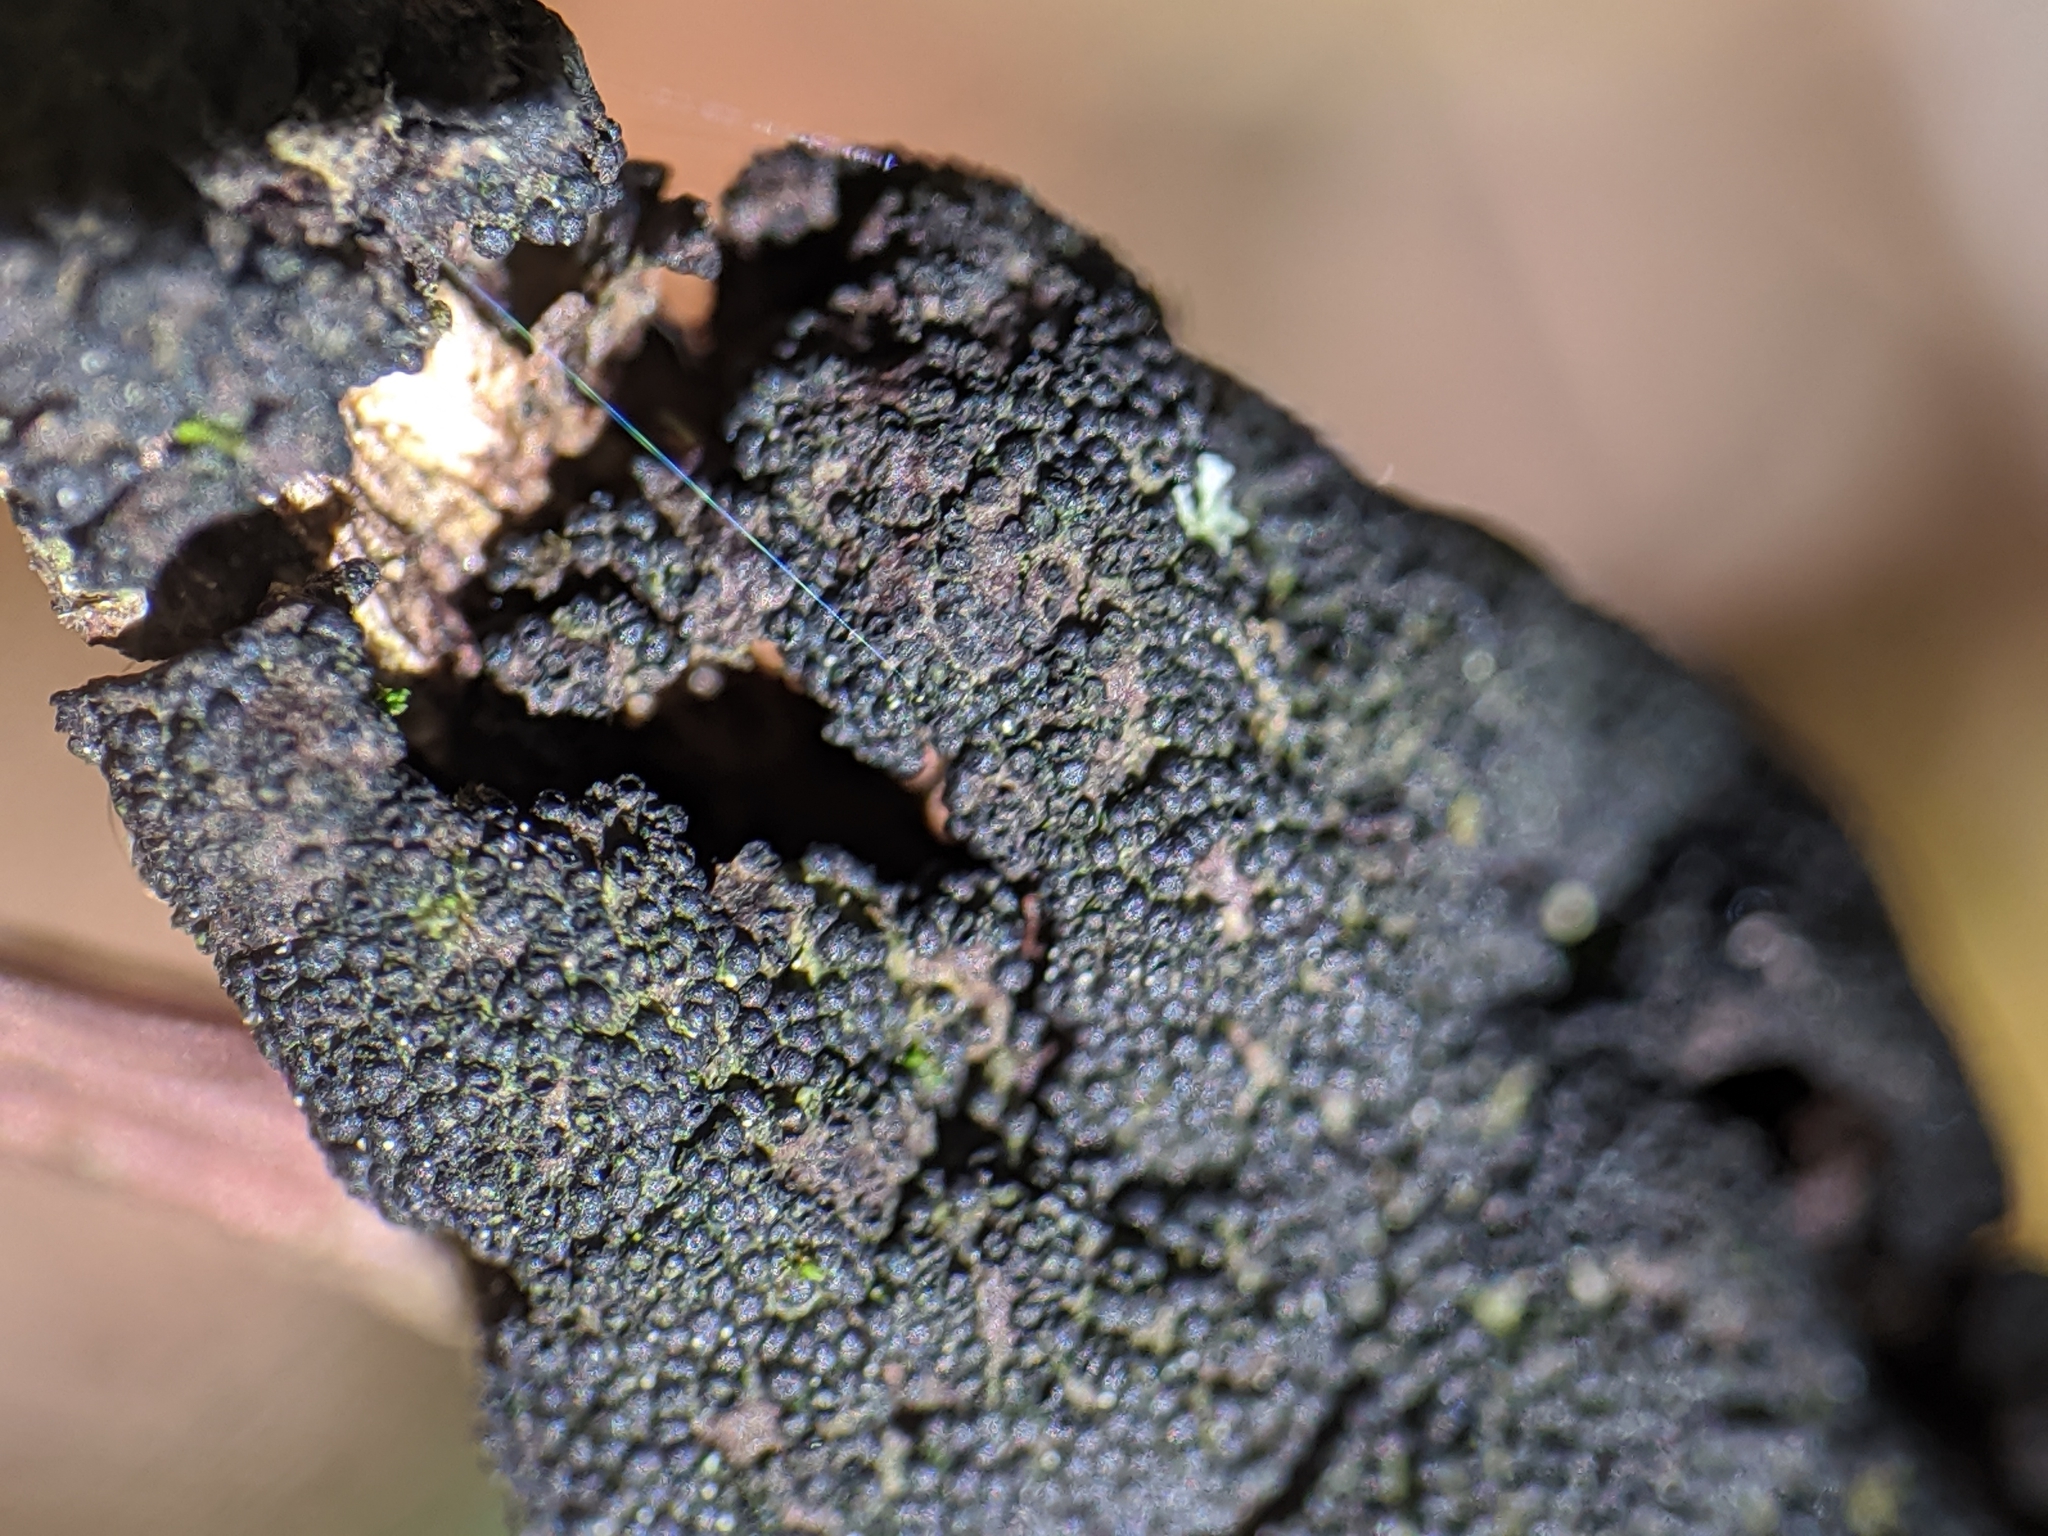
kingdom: Fungi
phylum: Ascomycota
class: Dothideomycetes
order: Venturiales
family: Venturiaceae
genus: Apiosporina
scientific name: Apiosporina morbosa
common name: Black knot
